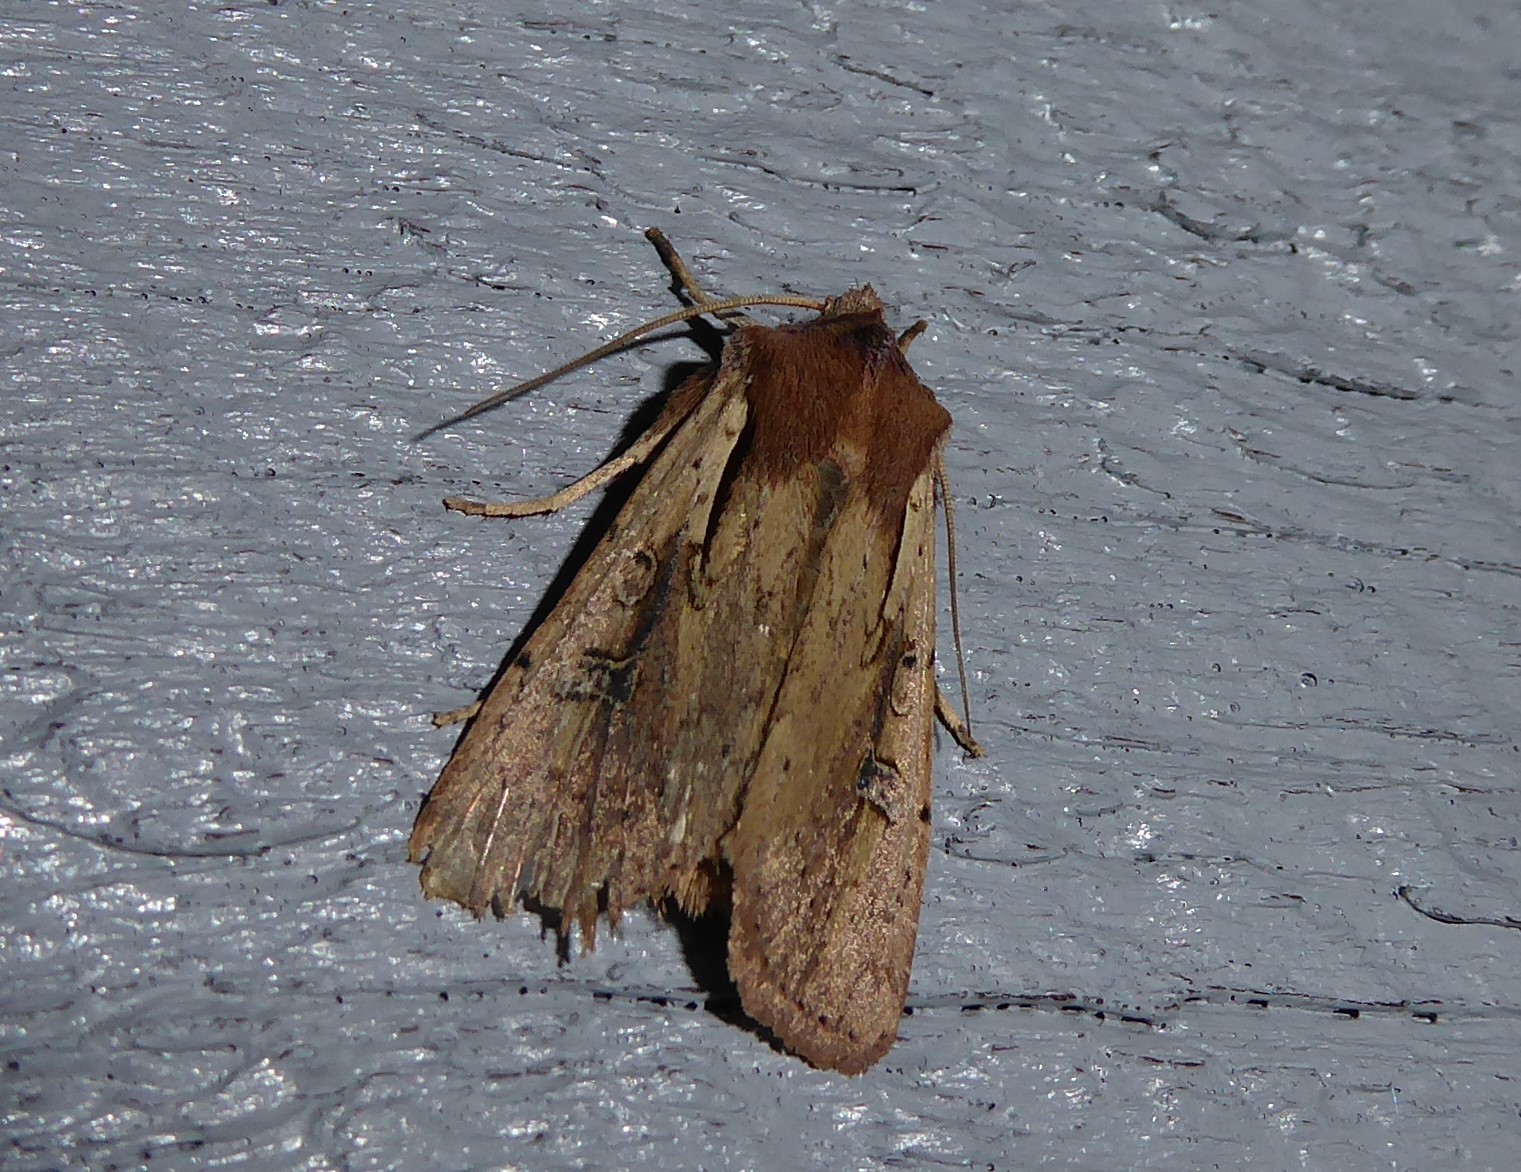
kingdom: Animalia
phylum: Arthropoda
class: Insecta
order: Lepidoptera
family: Noctuidae
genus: Ichneutica
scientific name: Ichneutica atristriga
